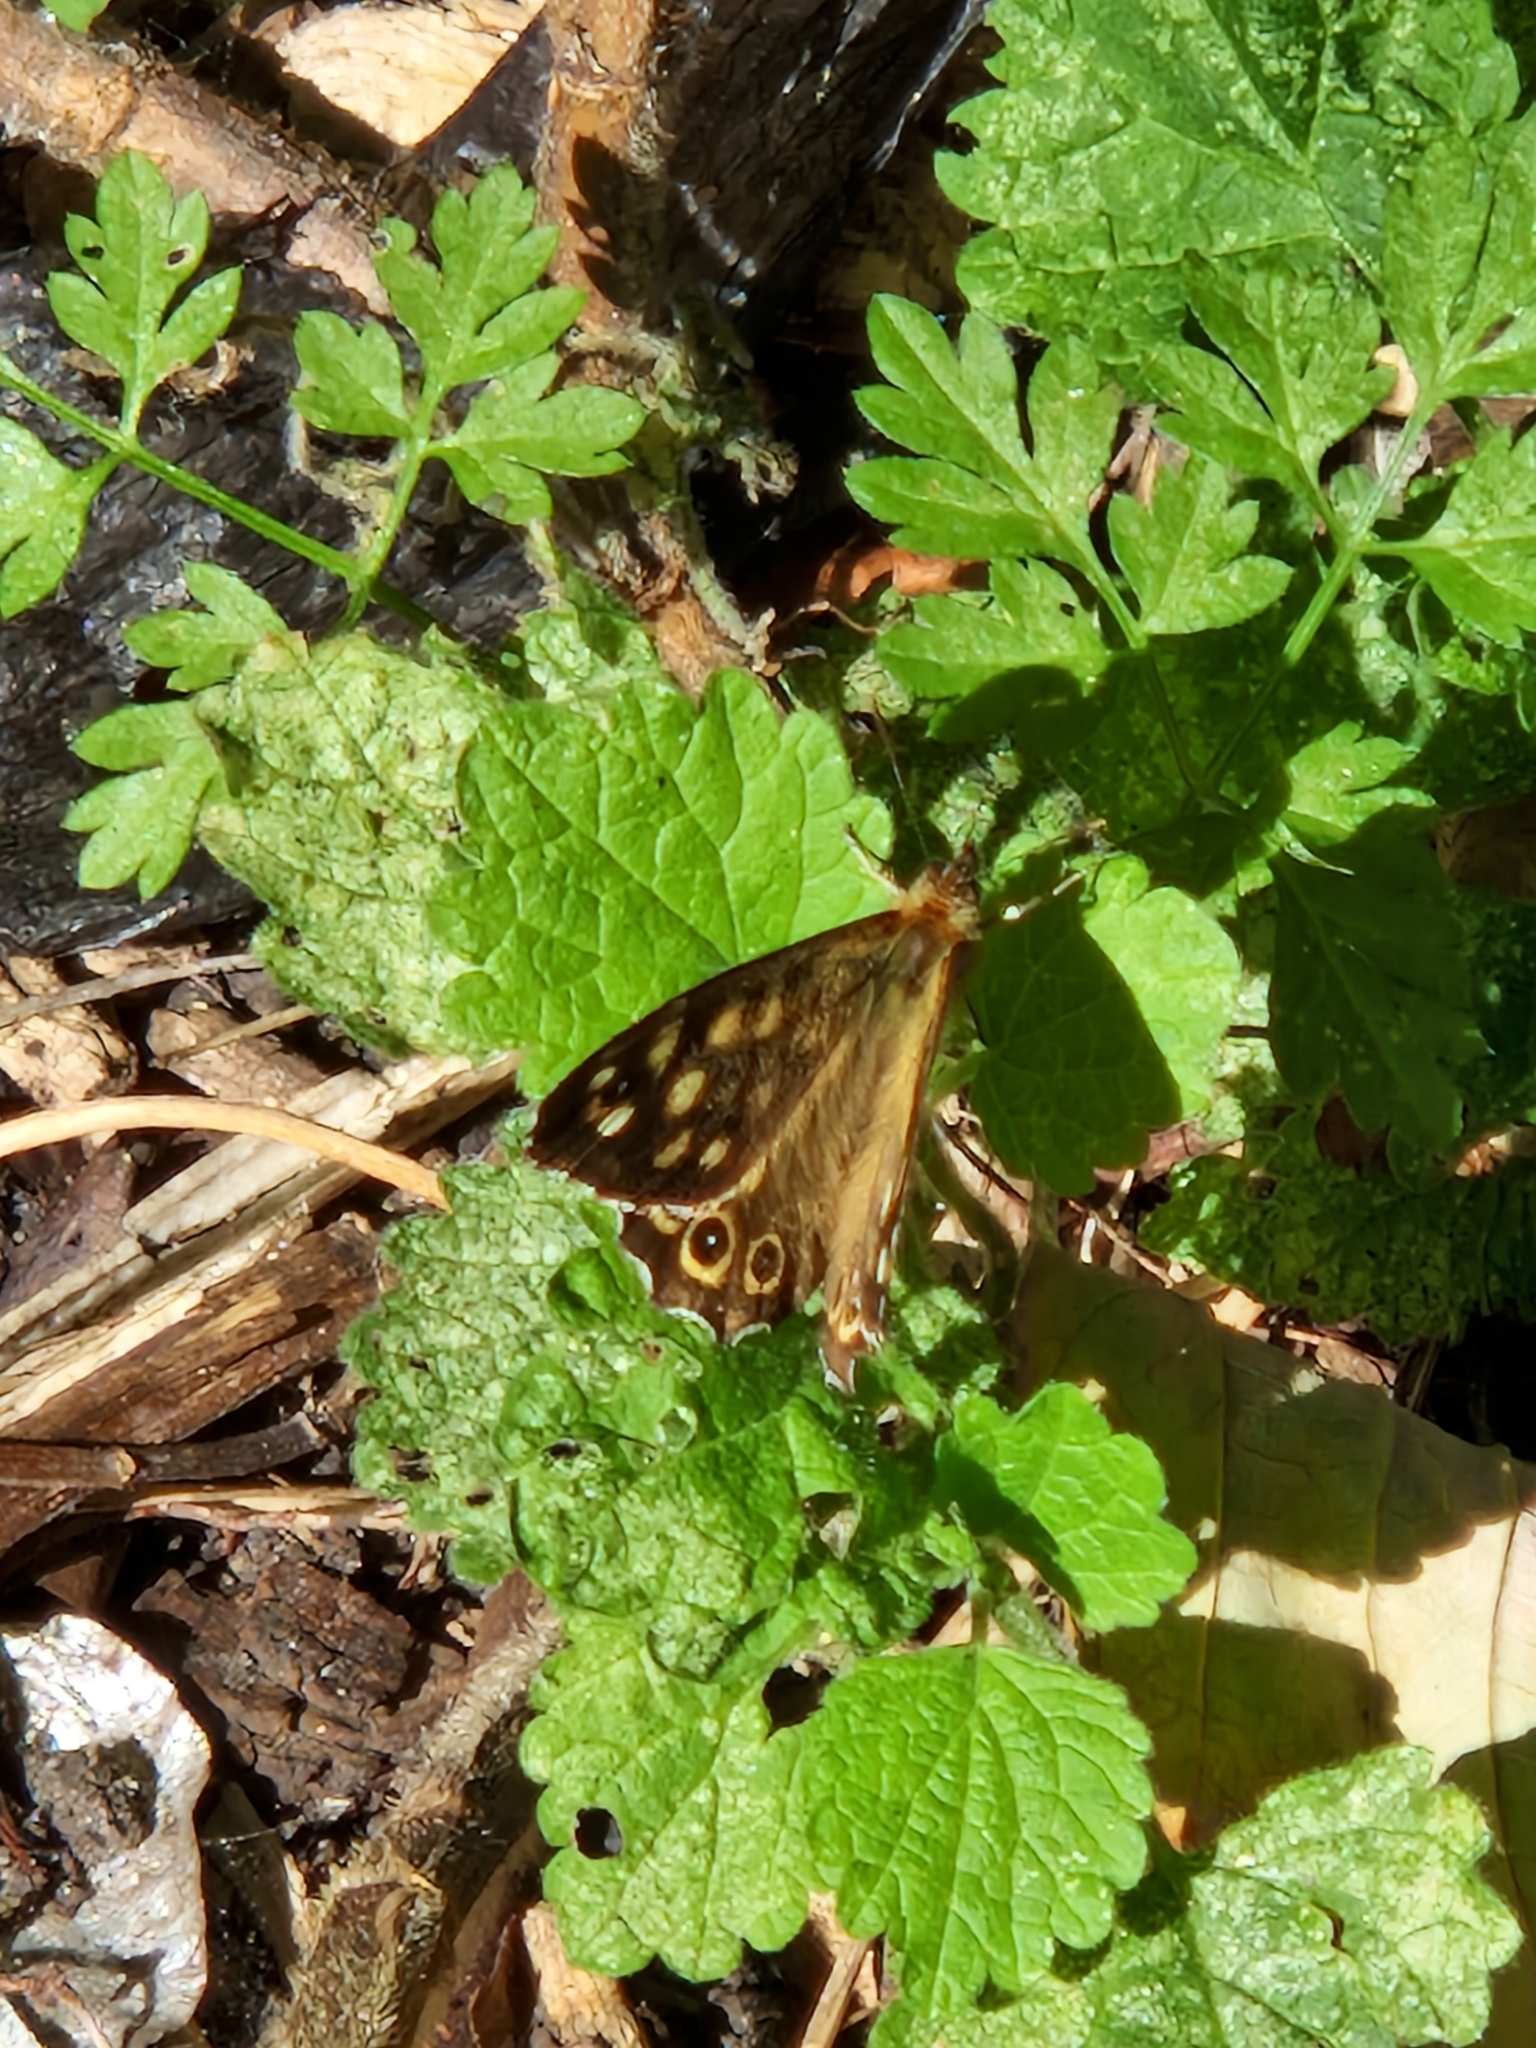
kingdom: Animalia
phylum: Arthropoda
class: Insecta
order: Lepidoptera
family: Nymphalidae
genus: Pararge
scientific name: Pararge aegeria
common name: Speckled wood
